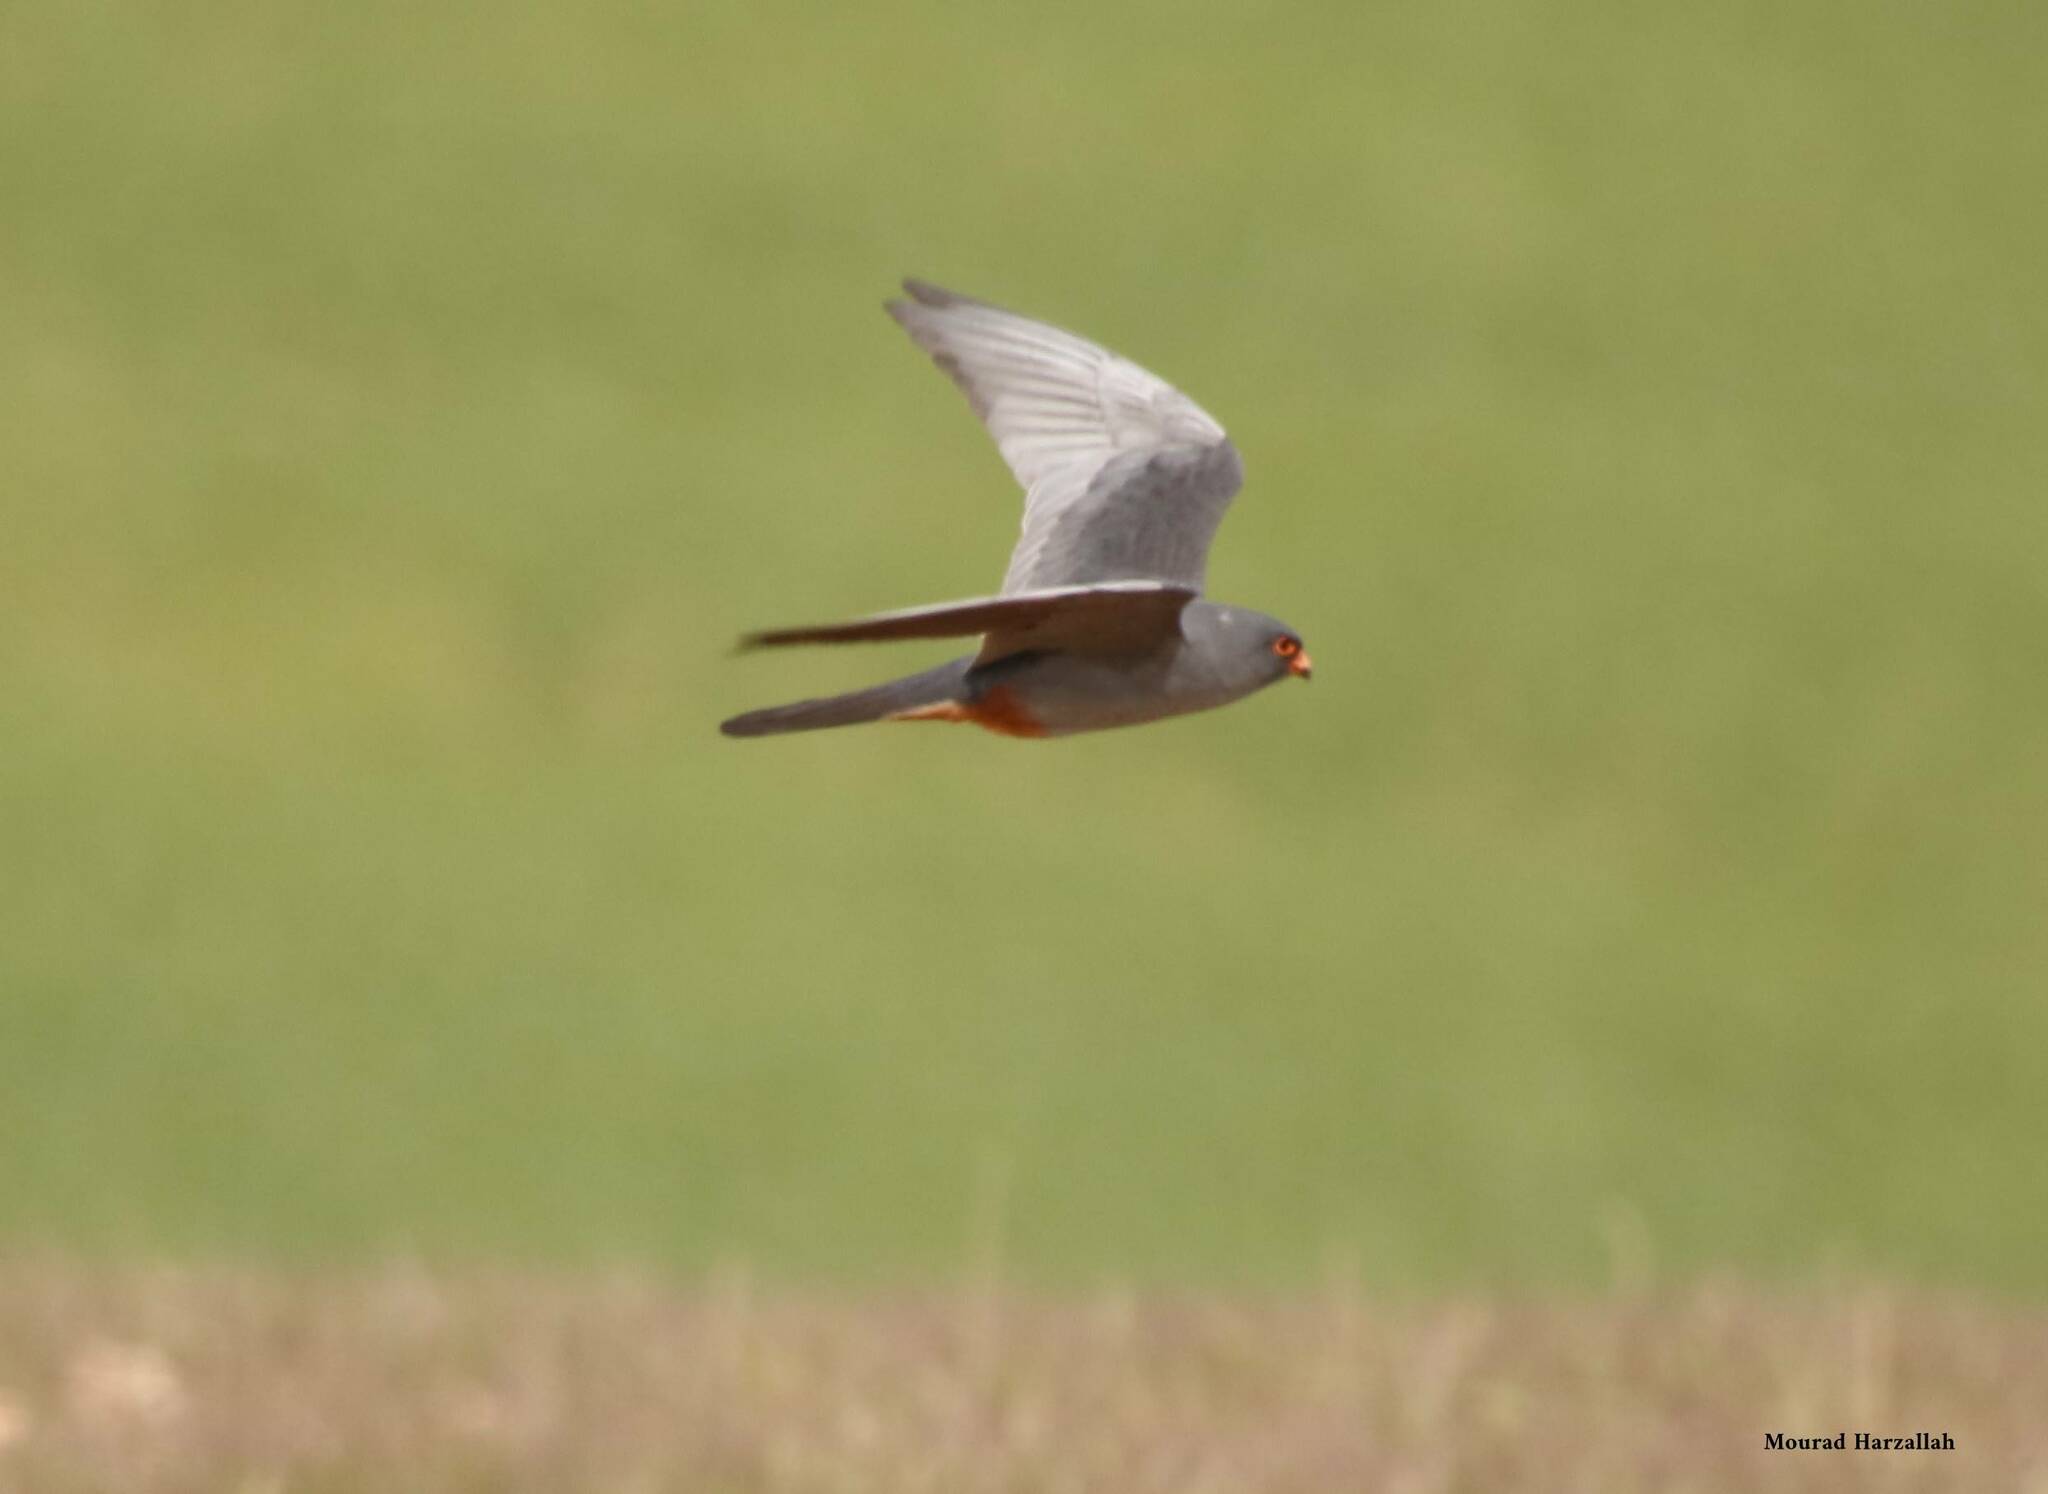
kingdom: Animalia
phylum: Chordata
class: Aves
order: Falconiformes
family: Falconidae
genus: Falco
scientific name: Falco vespertinus
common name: Red-footed falcon
